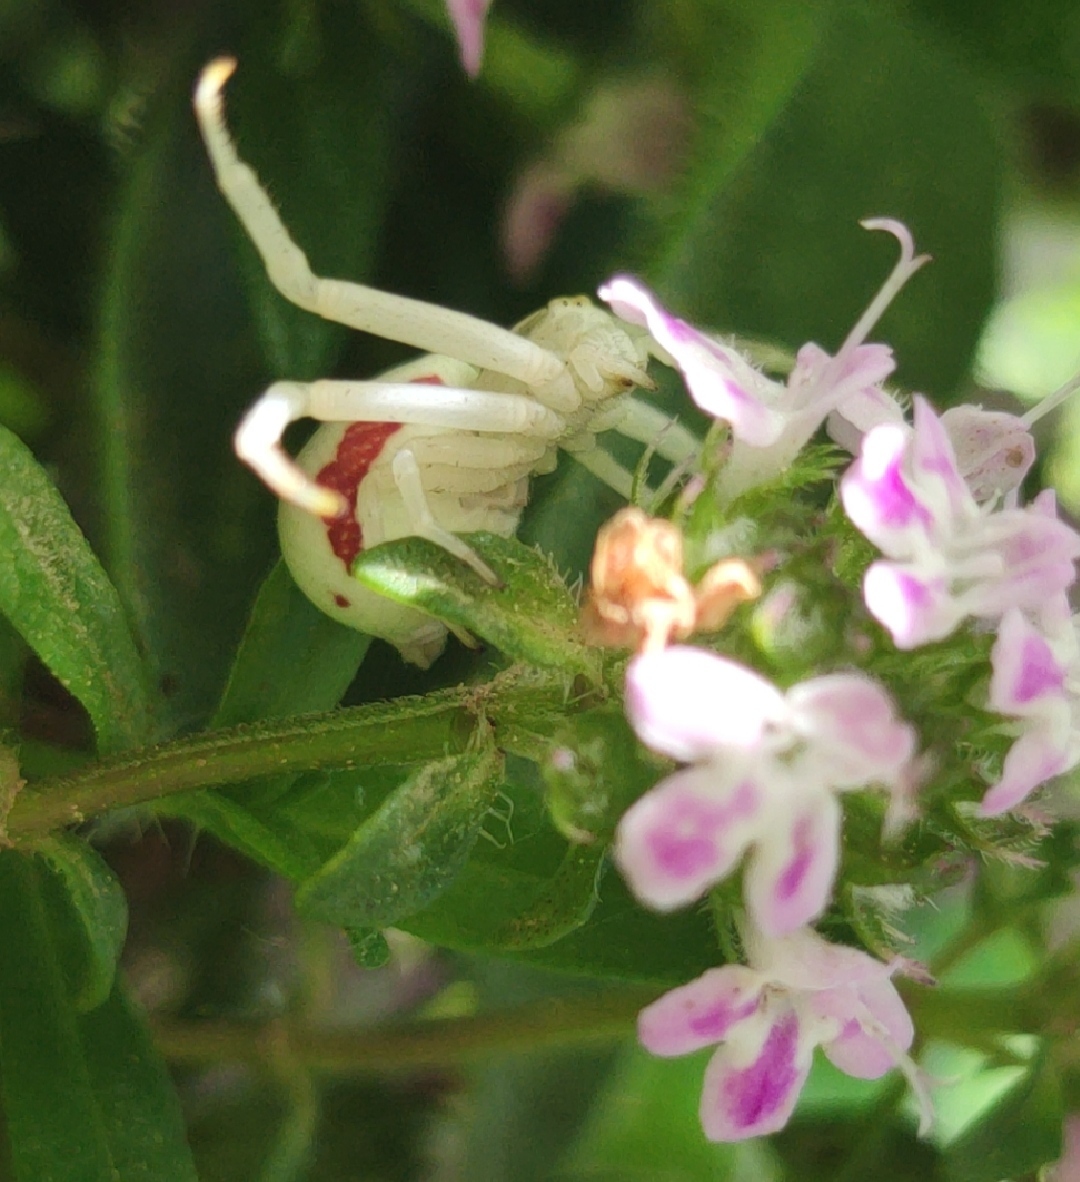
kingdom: Animalia
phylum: Arthropoda
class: Arachnida
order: Araneae
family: Thomisidae
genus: Misumena
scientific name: Misumena vatia
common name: Goldenrod crab spider
